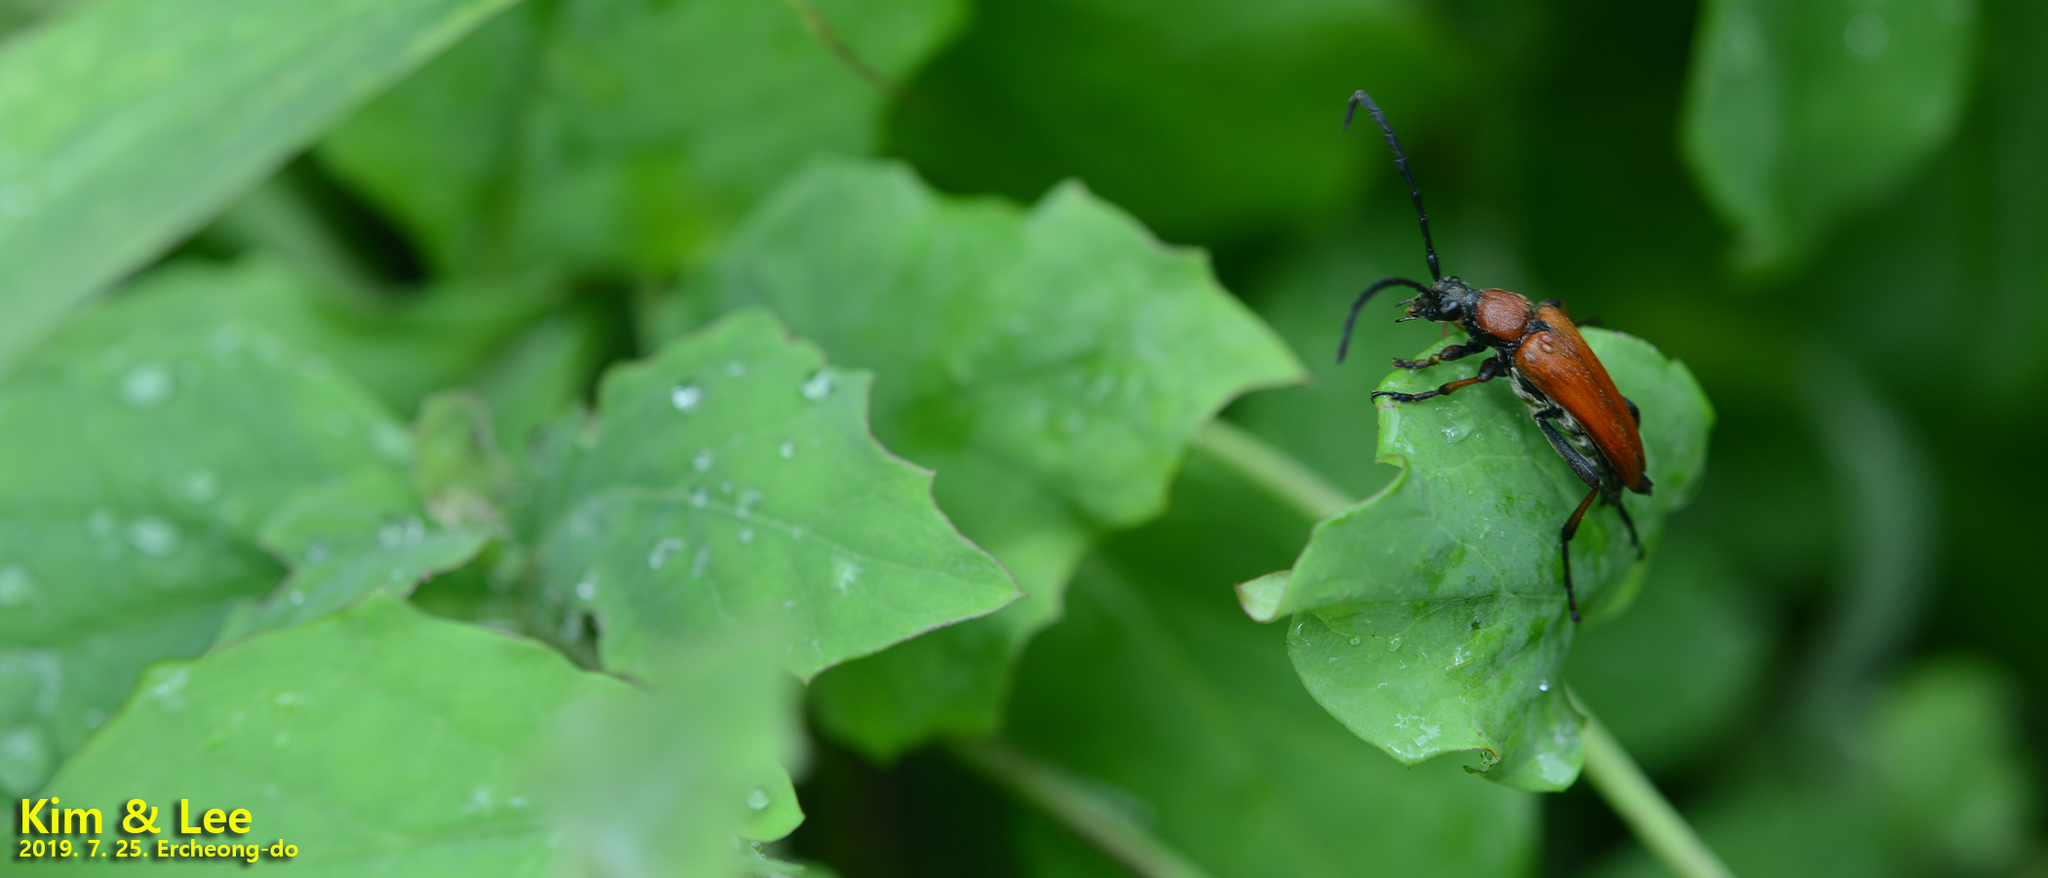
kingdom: Animalia
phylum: Arthropoda
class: Insecta
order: Coleoptera
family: Cerambycidae
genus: Stictoleptura
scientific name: Stictoleptura dichroa
